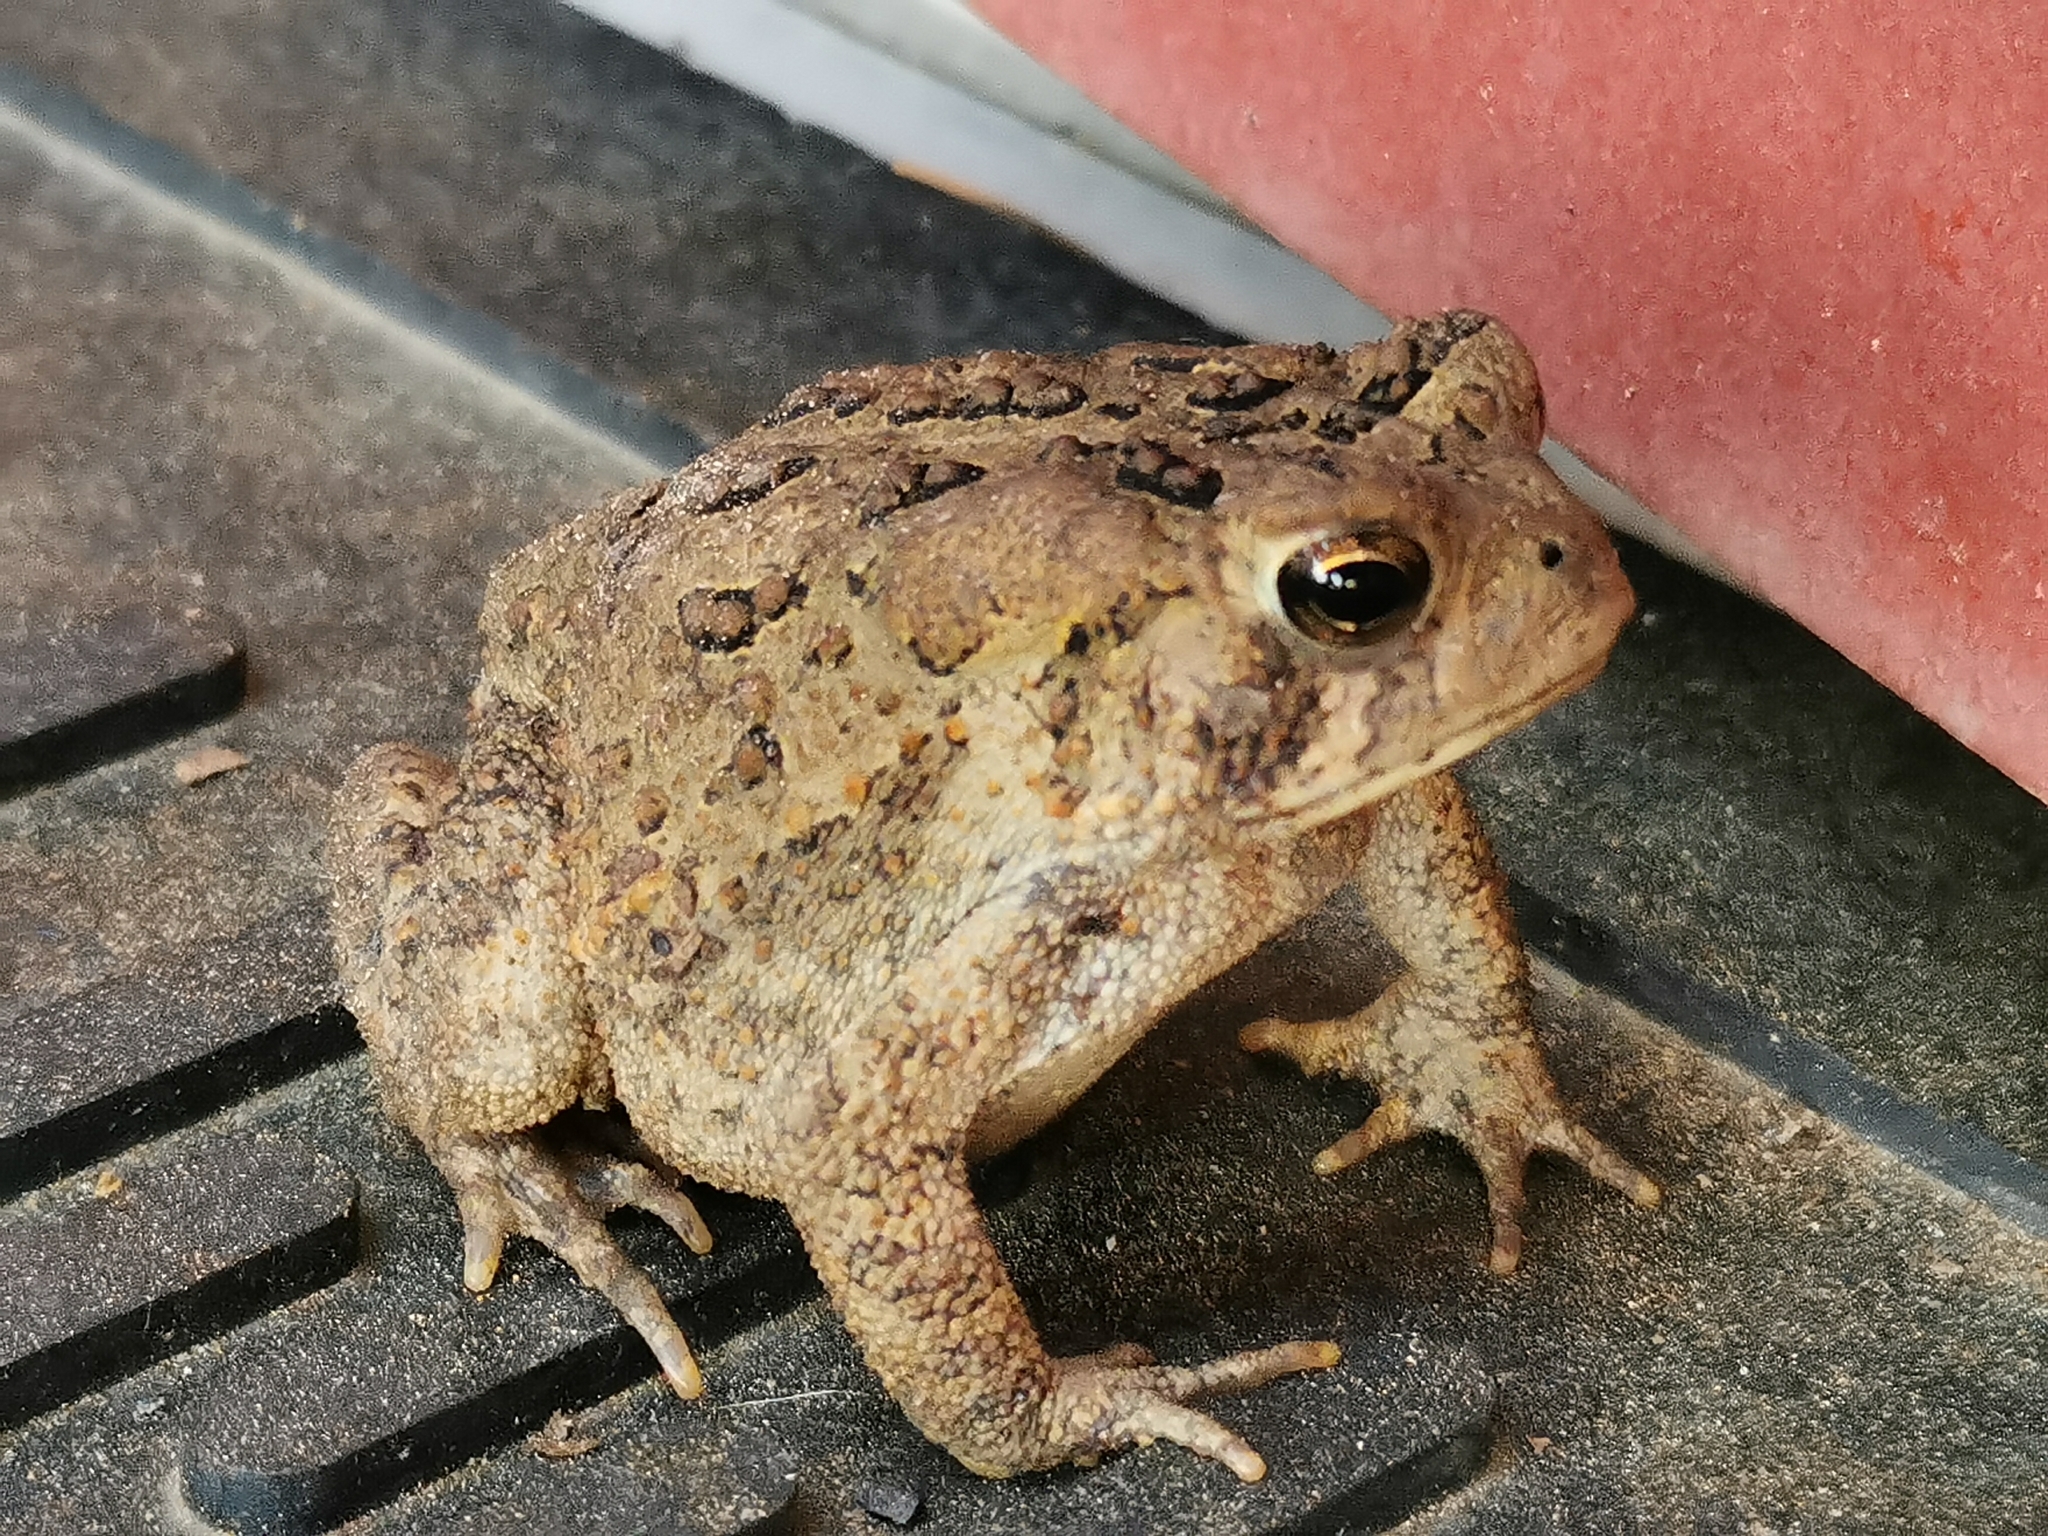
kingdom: Animalia
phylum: Chordata
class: Amphibia
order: Anura
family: Bufonidae
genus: Anaxyrus
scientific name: Anaxyrus americanus
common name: American toad
